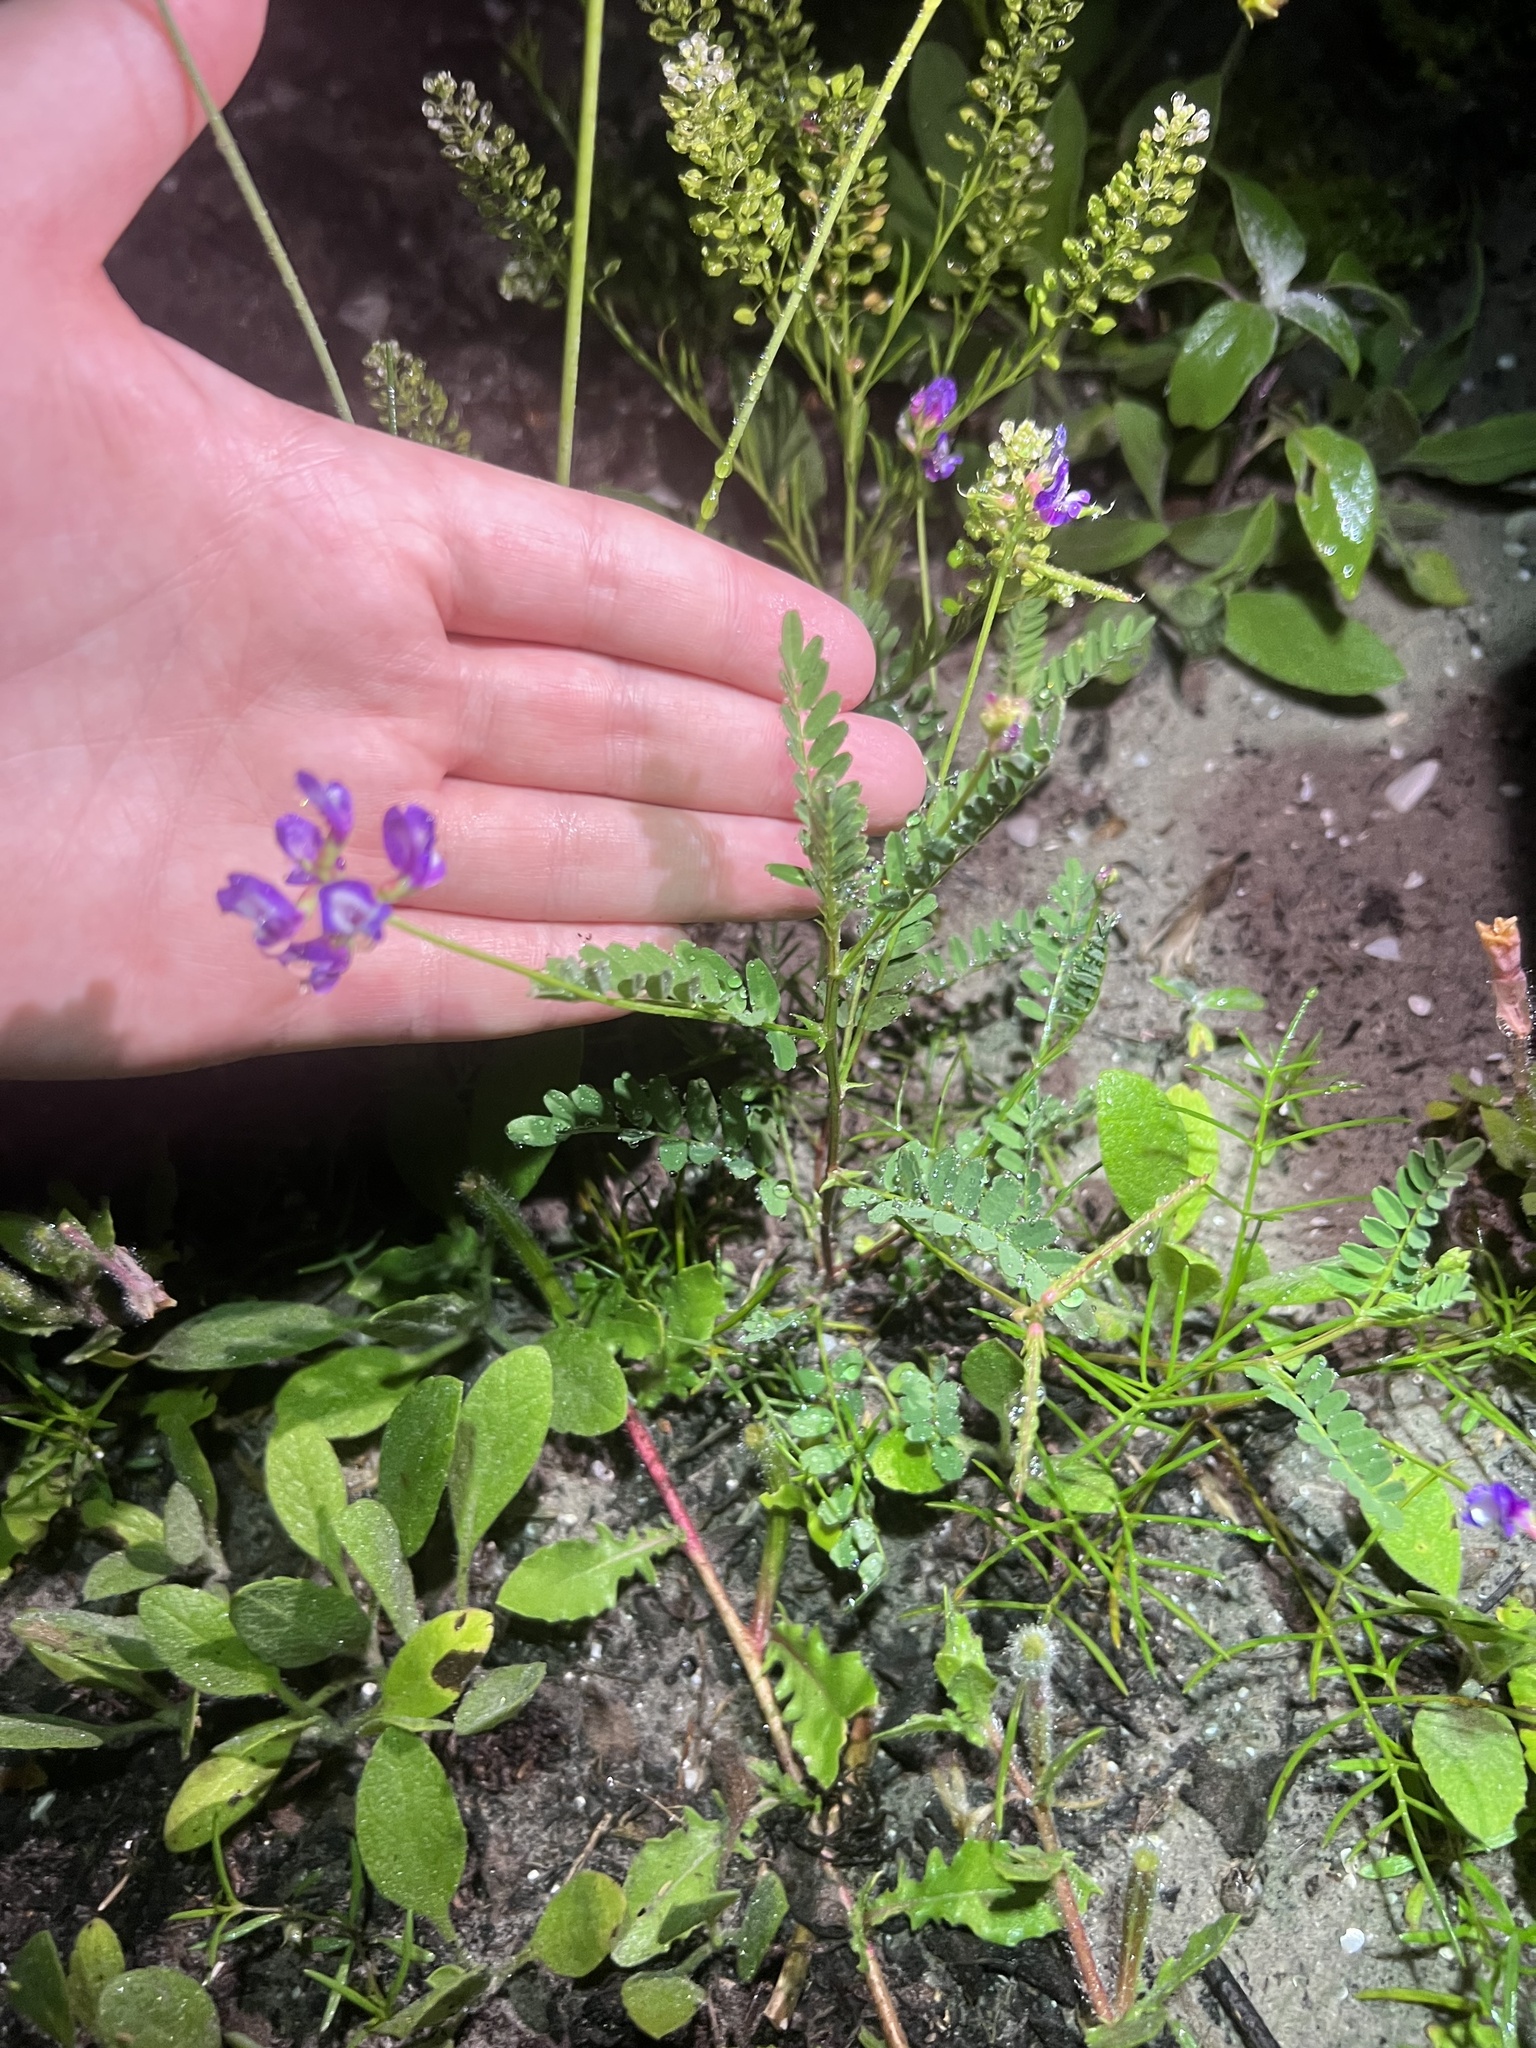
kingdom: Plantae
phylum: Tracheophyta
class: Magnoliopsida
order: Fabales
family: Fabaceae
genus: Astragalus
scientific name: Astragalus leptocarpus
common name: Bodkin milk-vetch
